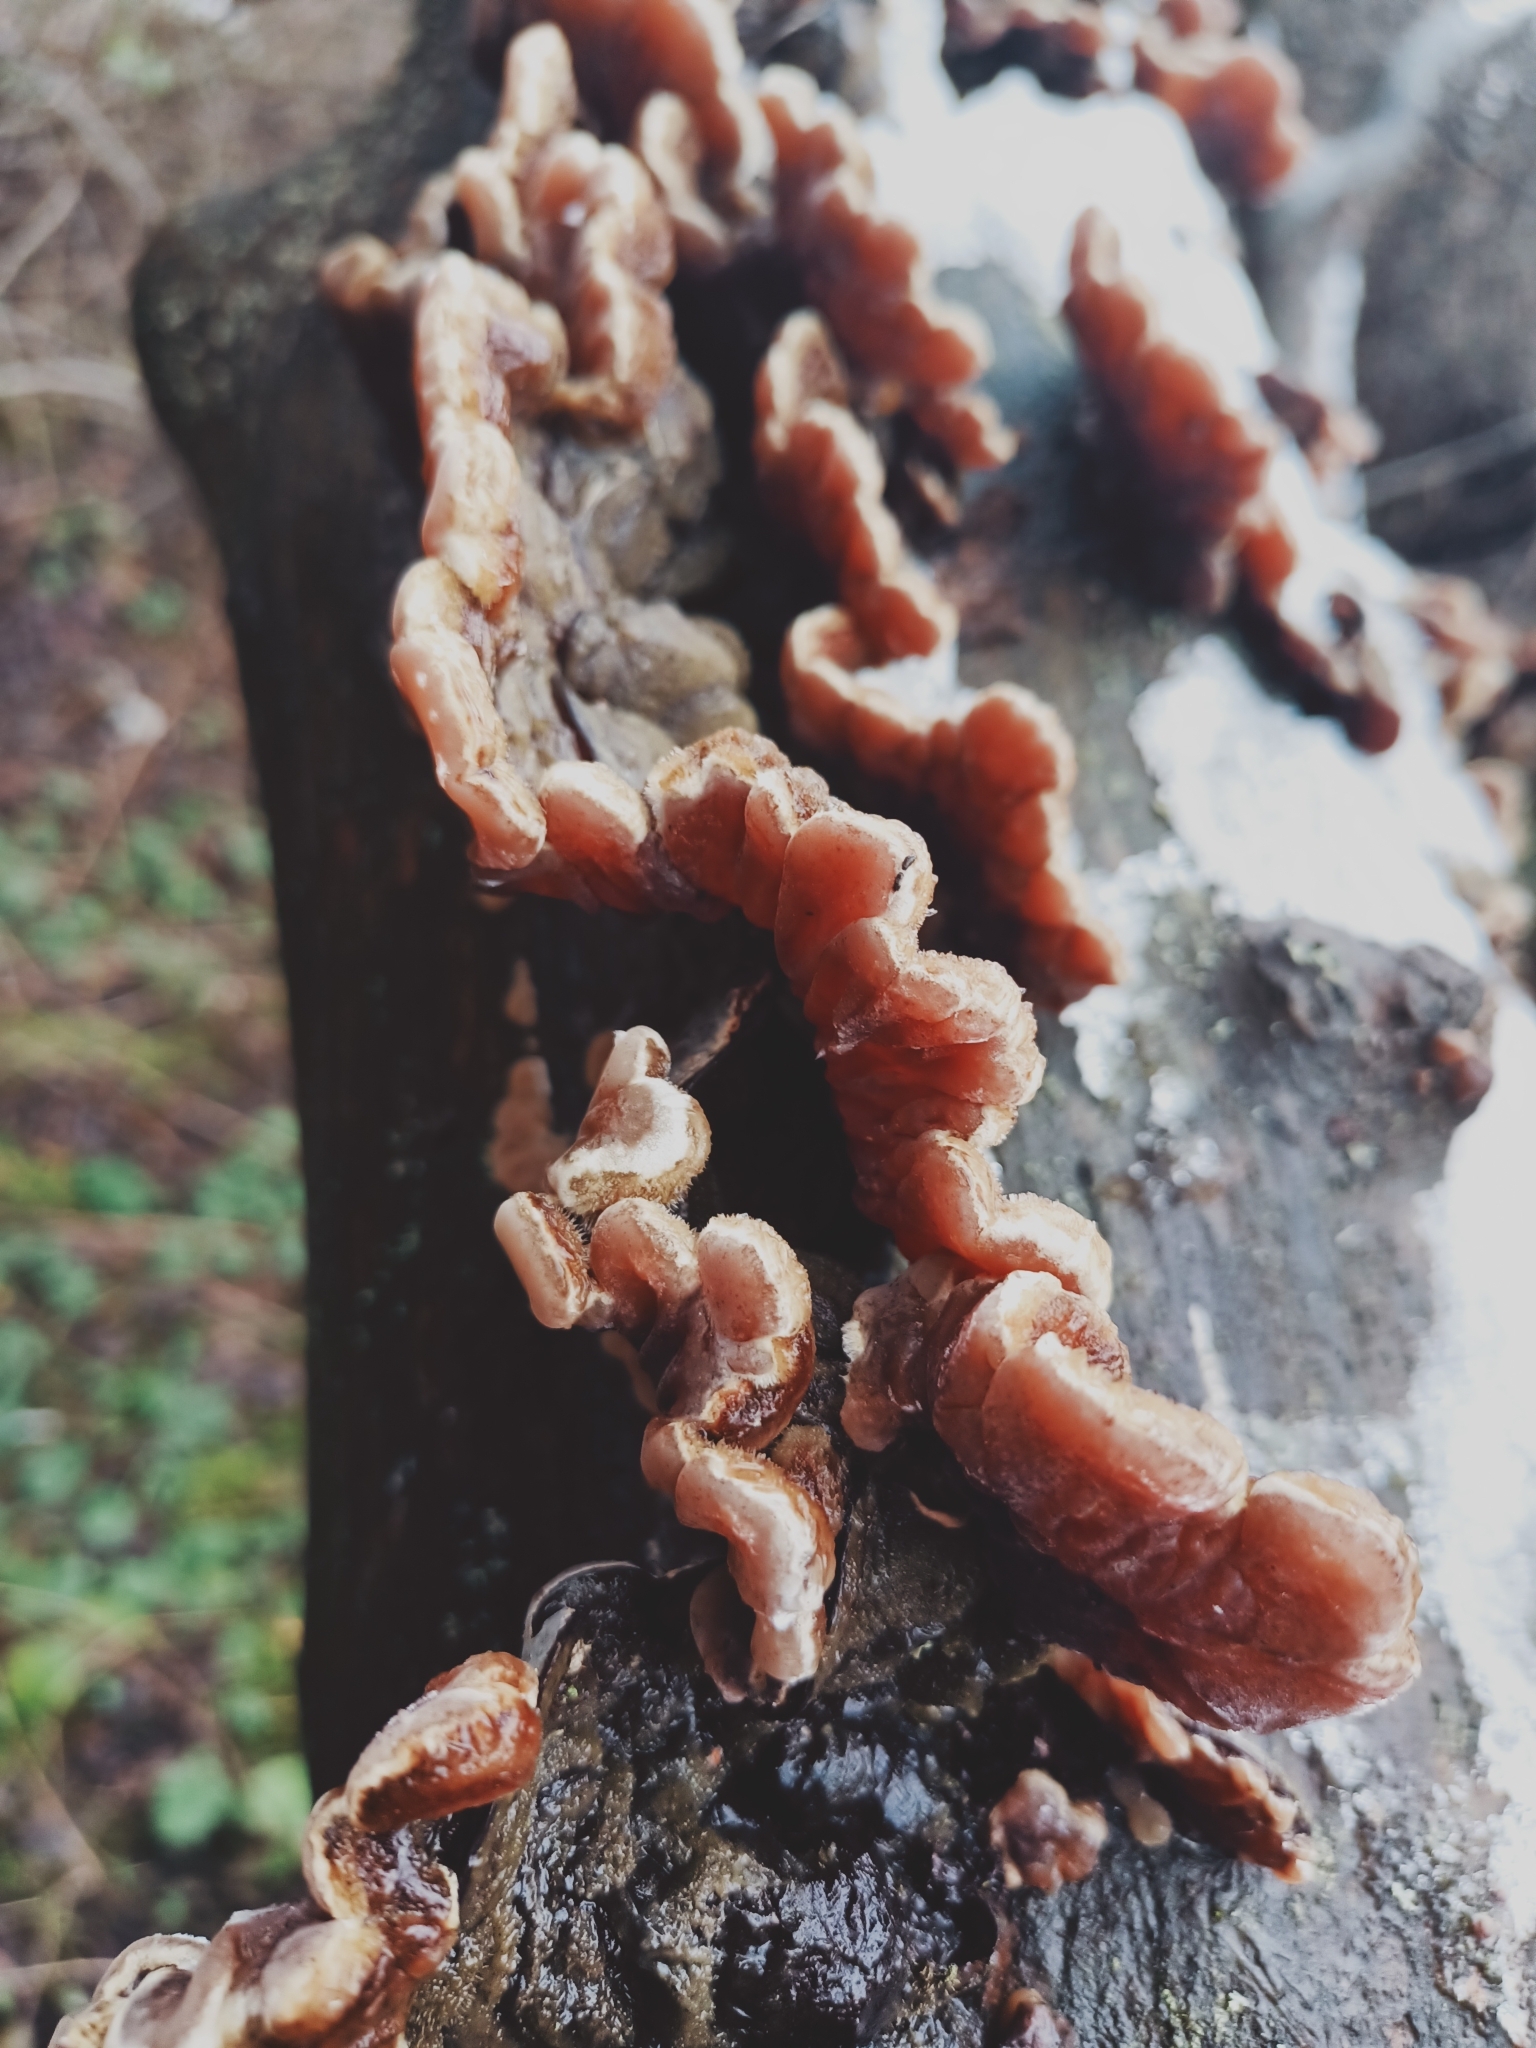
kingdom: Fungi
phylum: Basidiomycota
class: Agaricomycetes
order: Auriculariales
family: Auriculariaceae
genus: Auricularia
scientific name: Auricularia mesenterica
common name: Tripe fungus
